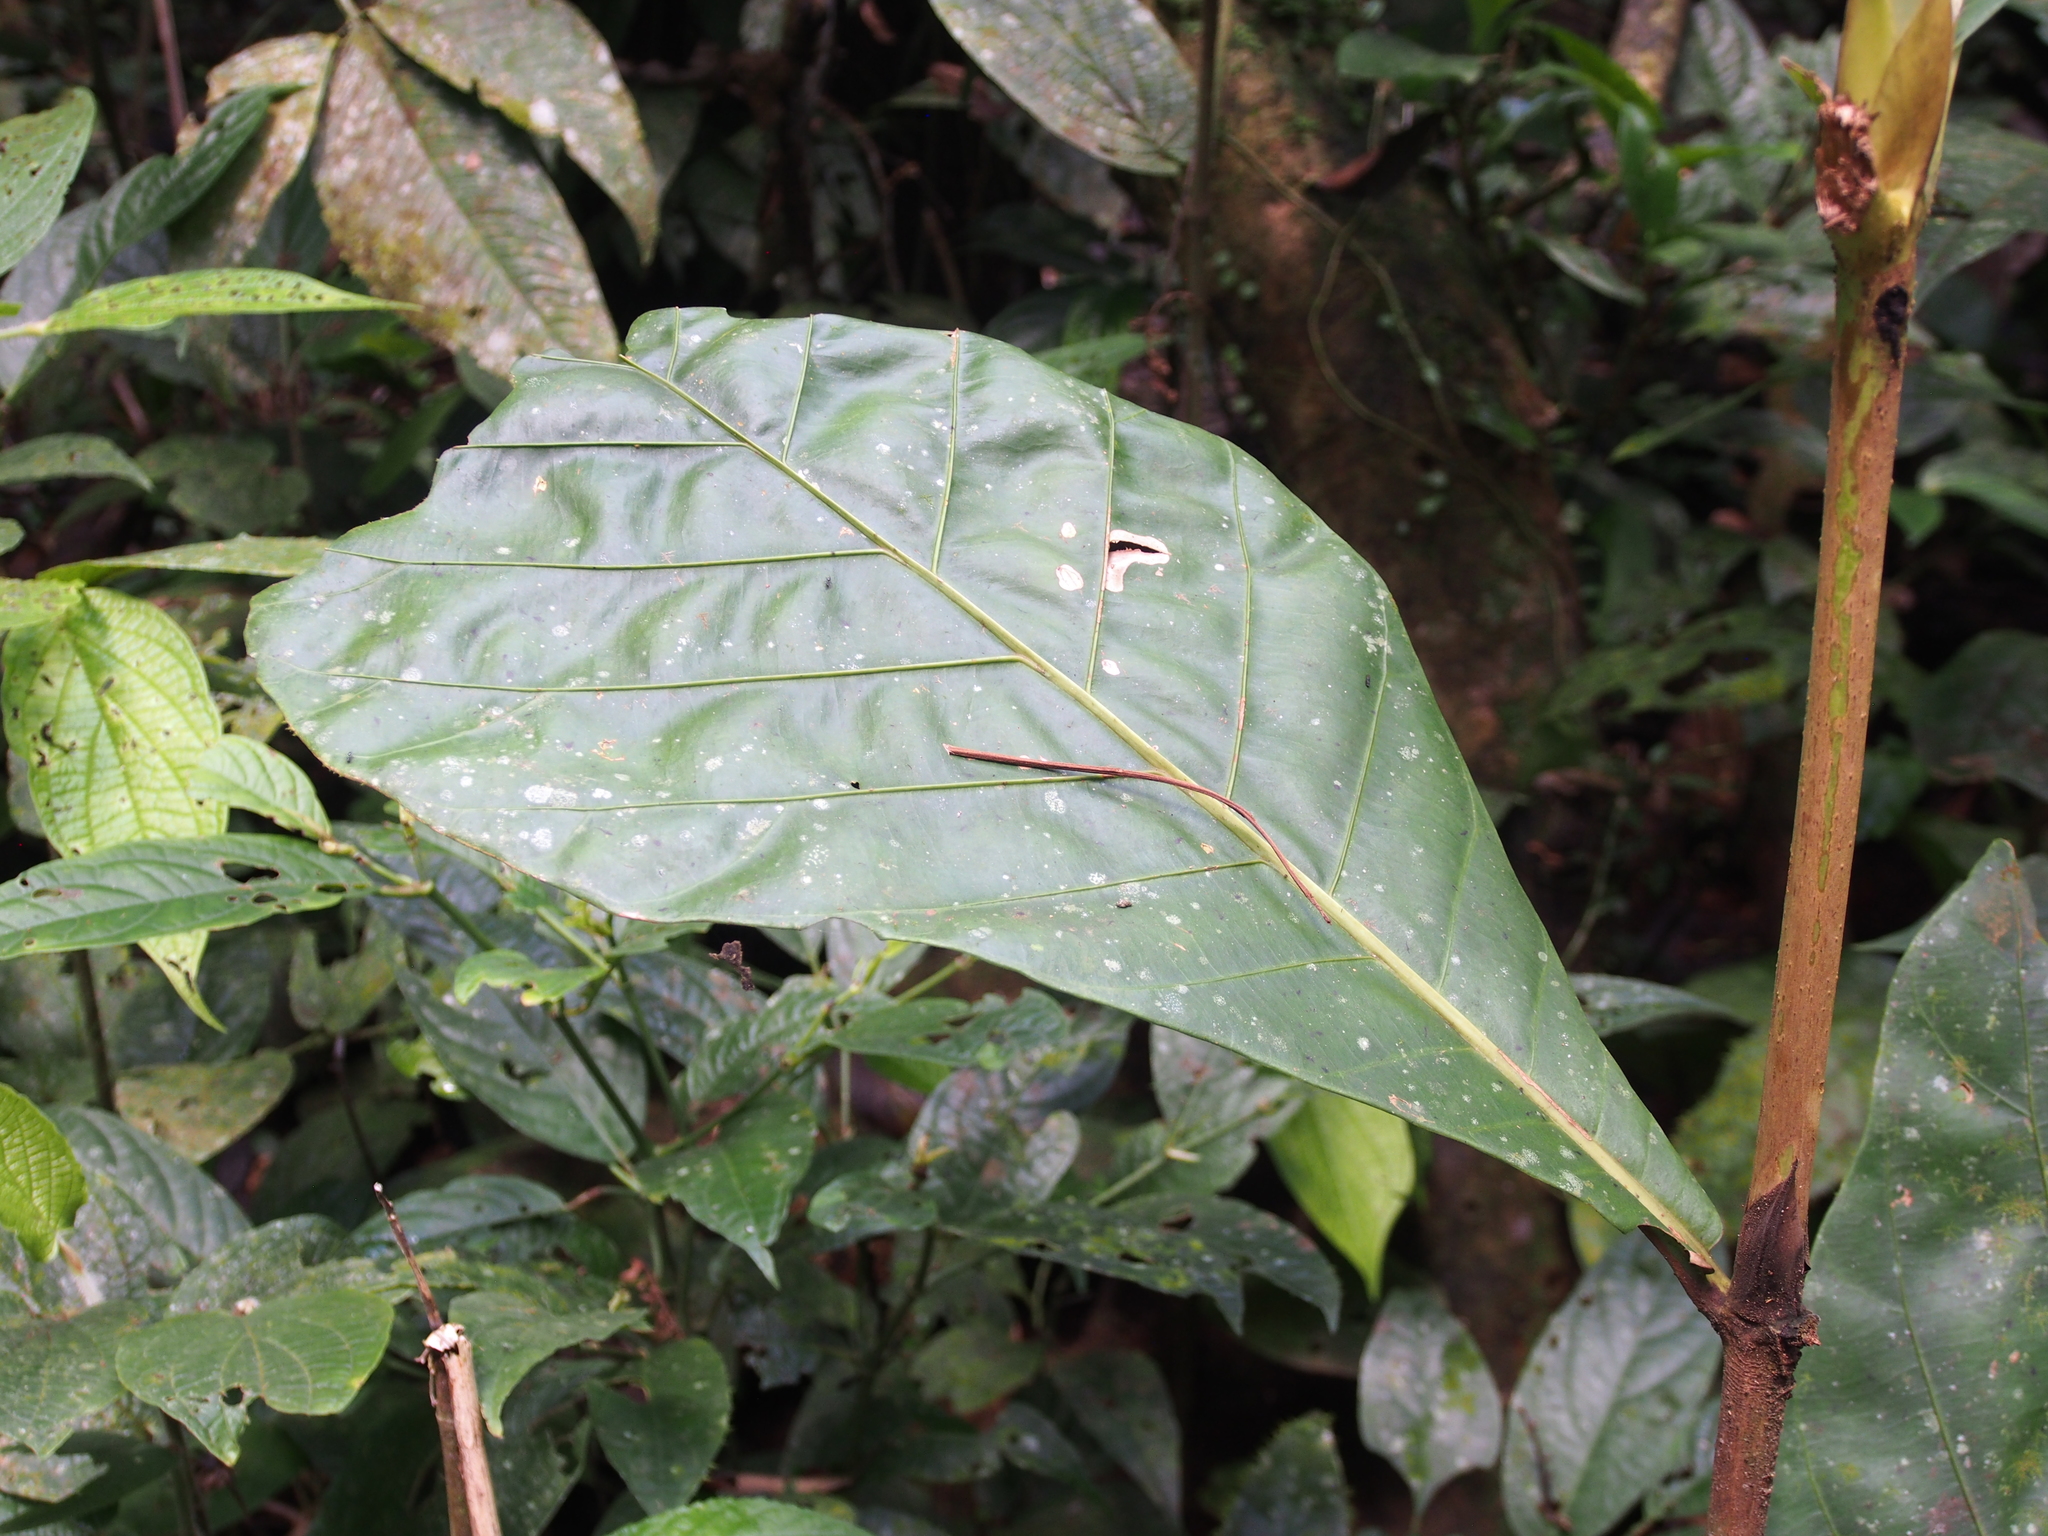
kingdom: Plantae
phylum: Tracheophyta
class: Magnoliopsida
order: Gentianales
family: Rubiaceae
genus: Pentagonia
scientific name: Pentagonia donnell-smithii
